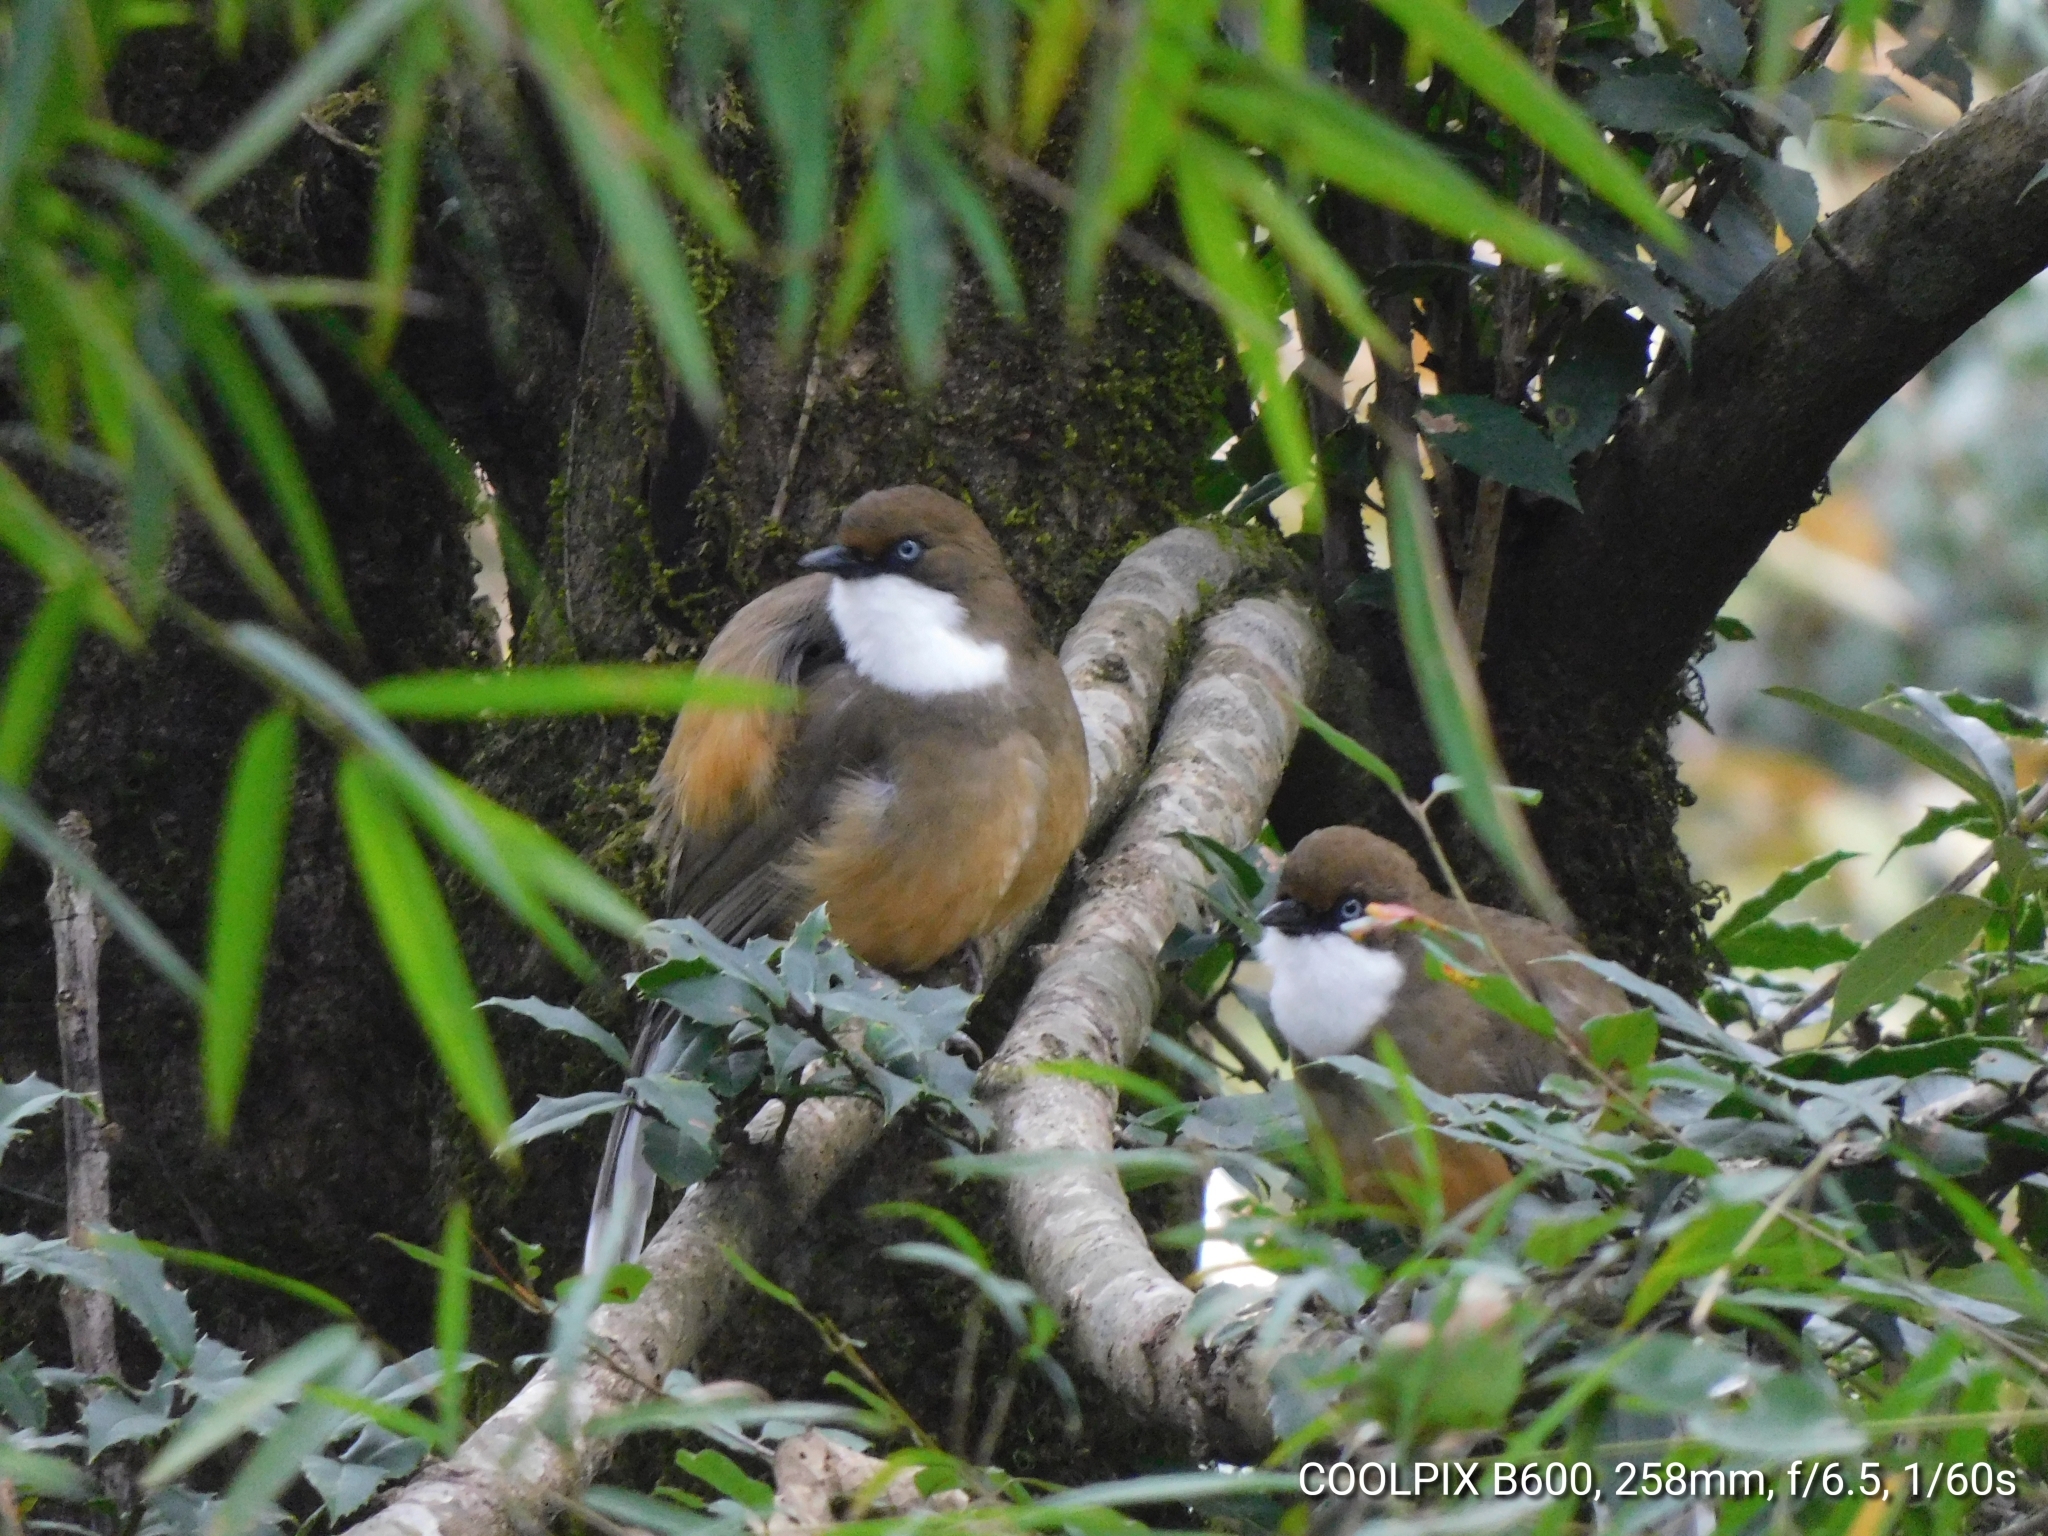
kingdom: Animalia
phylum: Chordata
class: Aves
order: Passeriformes
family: Leiothrichidae
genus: Garrulax
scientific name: Garrulax albogularis
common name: White-throated laughingthrush
